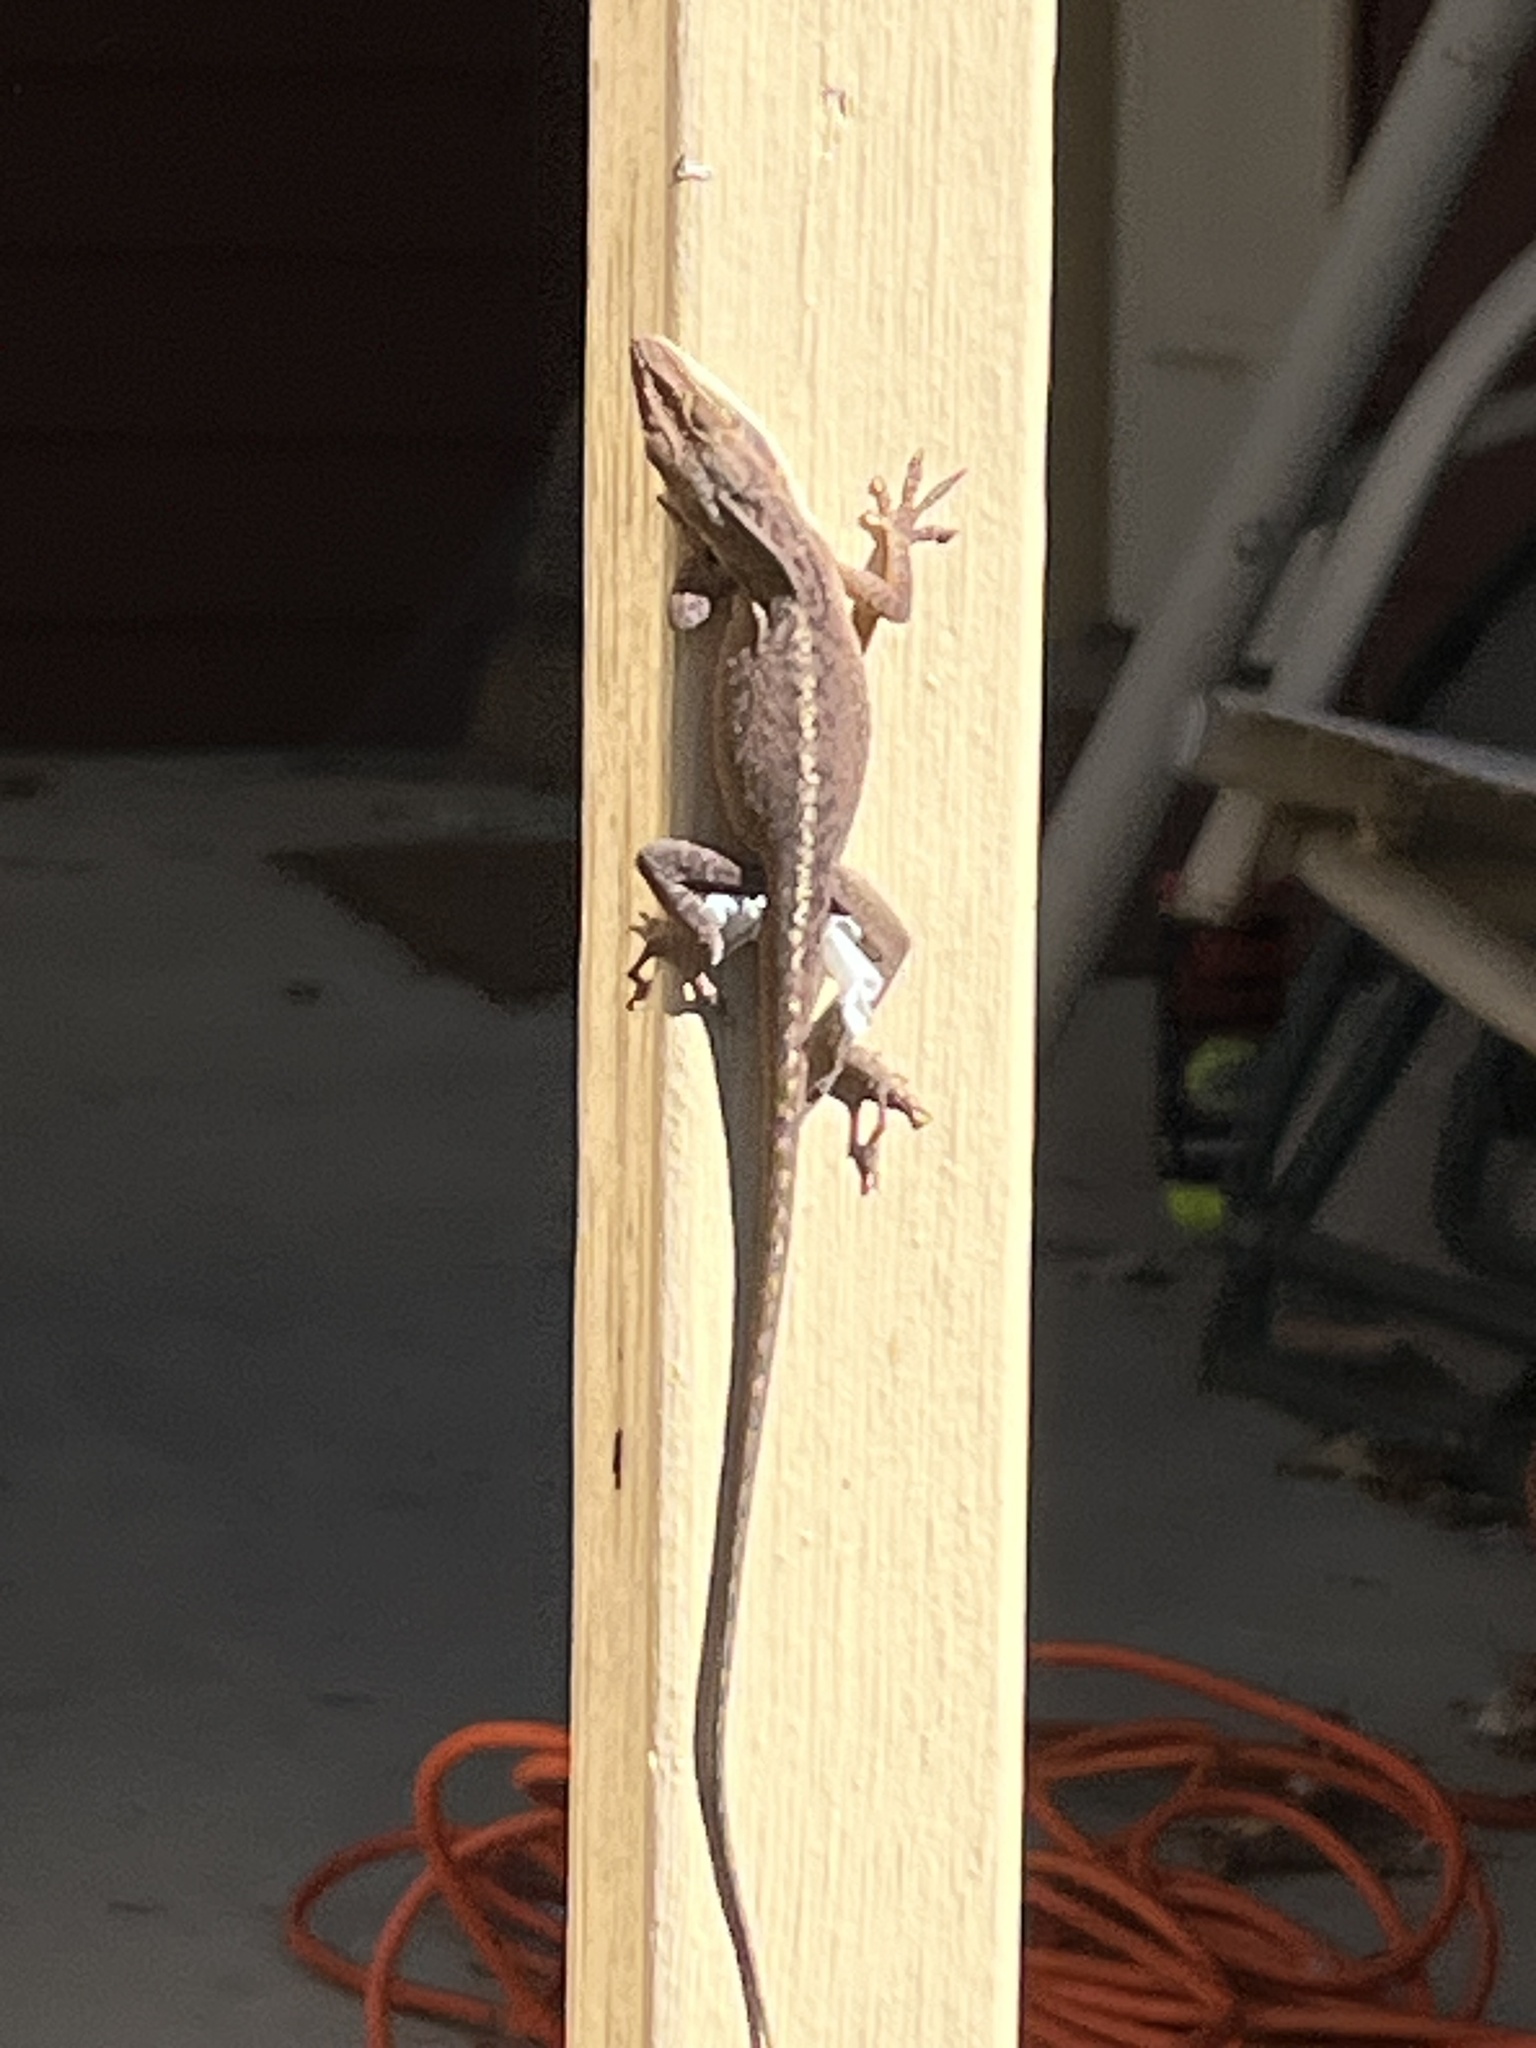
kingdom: Animalia
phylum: Chordata
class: Squamata
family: Dactyloidae
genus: Anolis
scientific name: Anolis carolinensis
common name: Green anole
